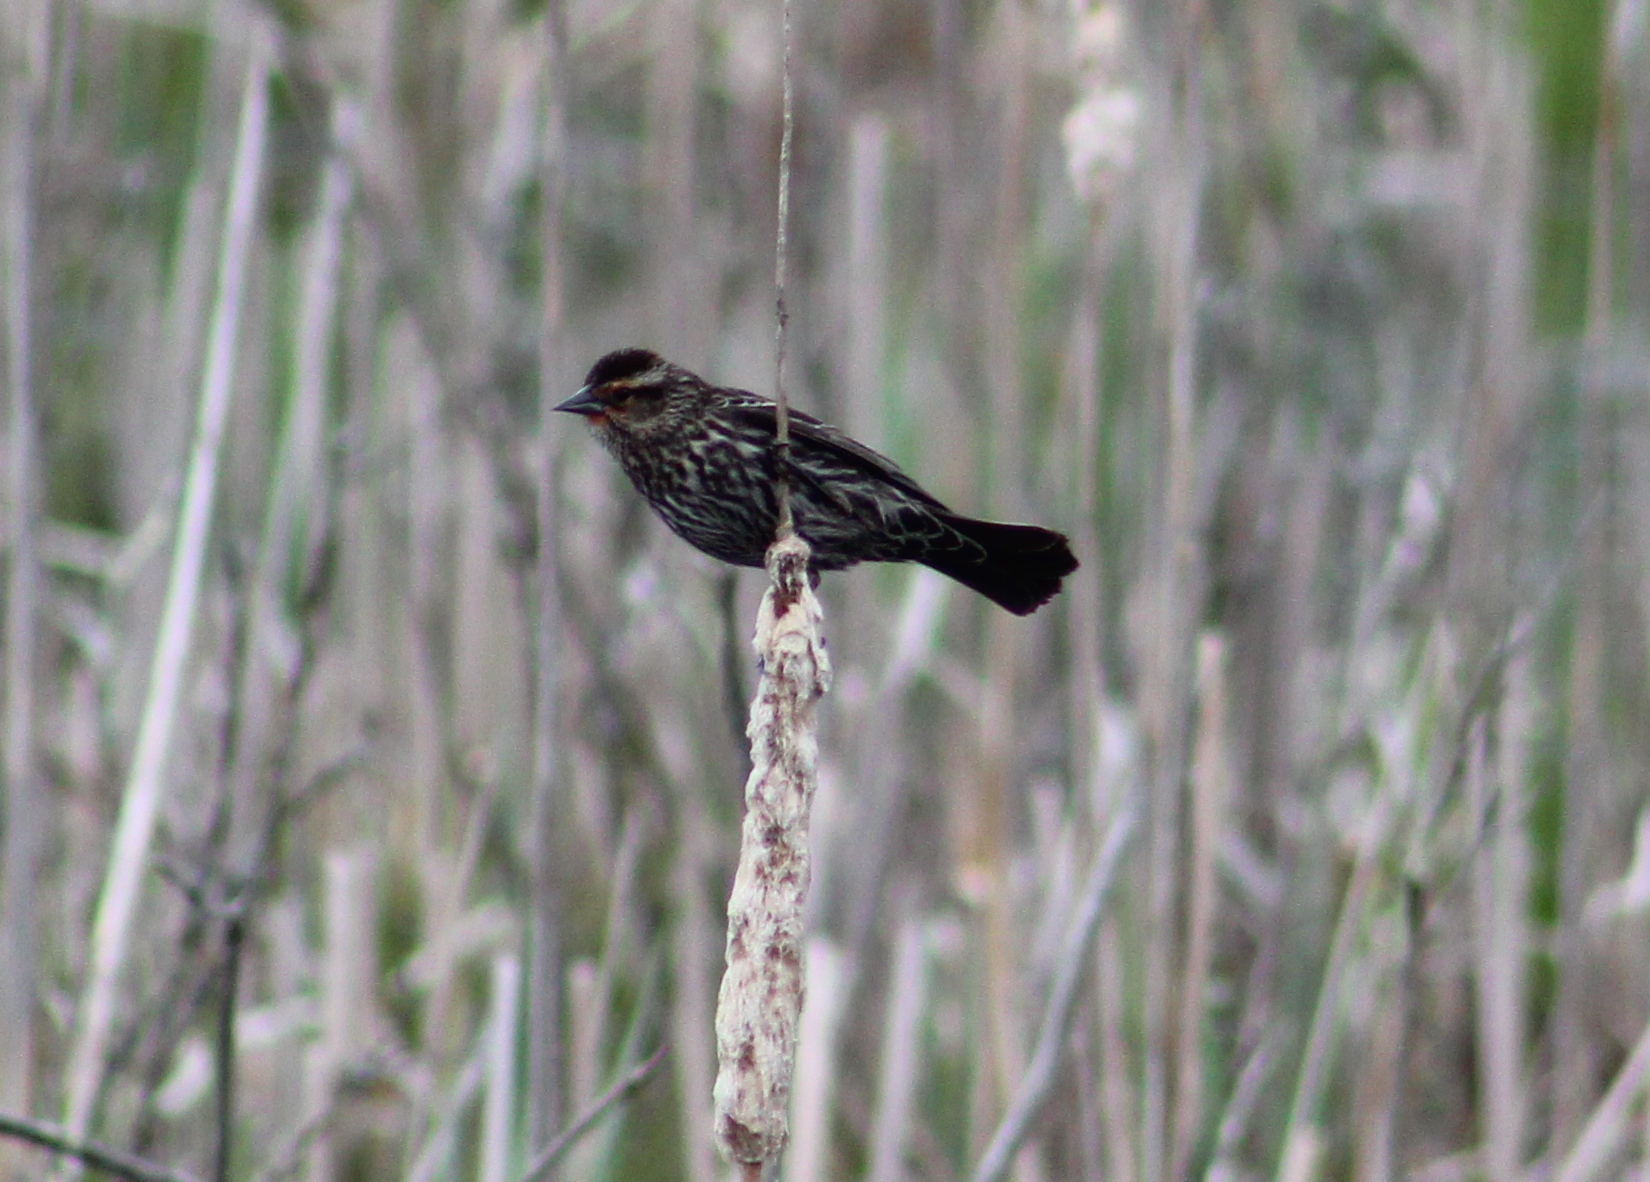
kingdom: Animalia
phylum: Chordata
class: Aves
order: Passeriformes
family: Icteridae
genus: Agelaius
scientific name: Agelaius phoeniceus
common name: Red-winged blackbird
